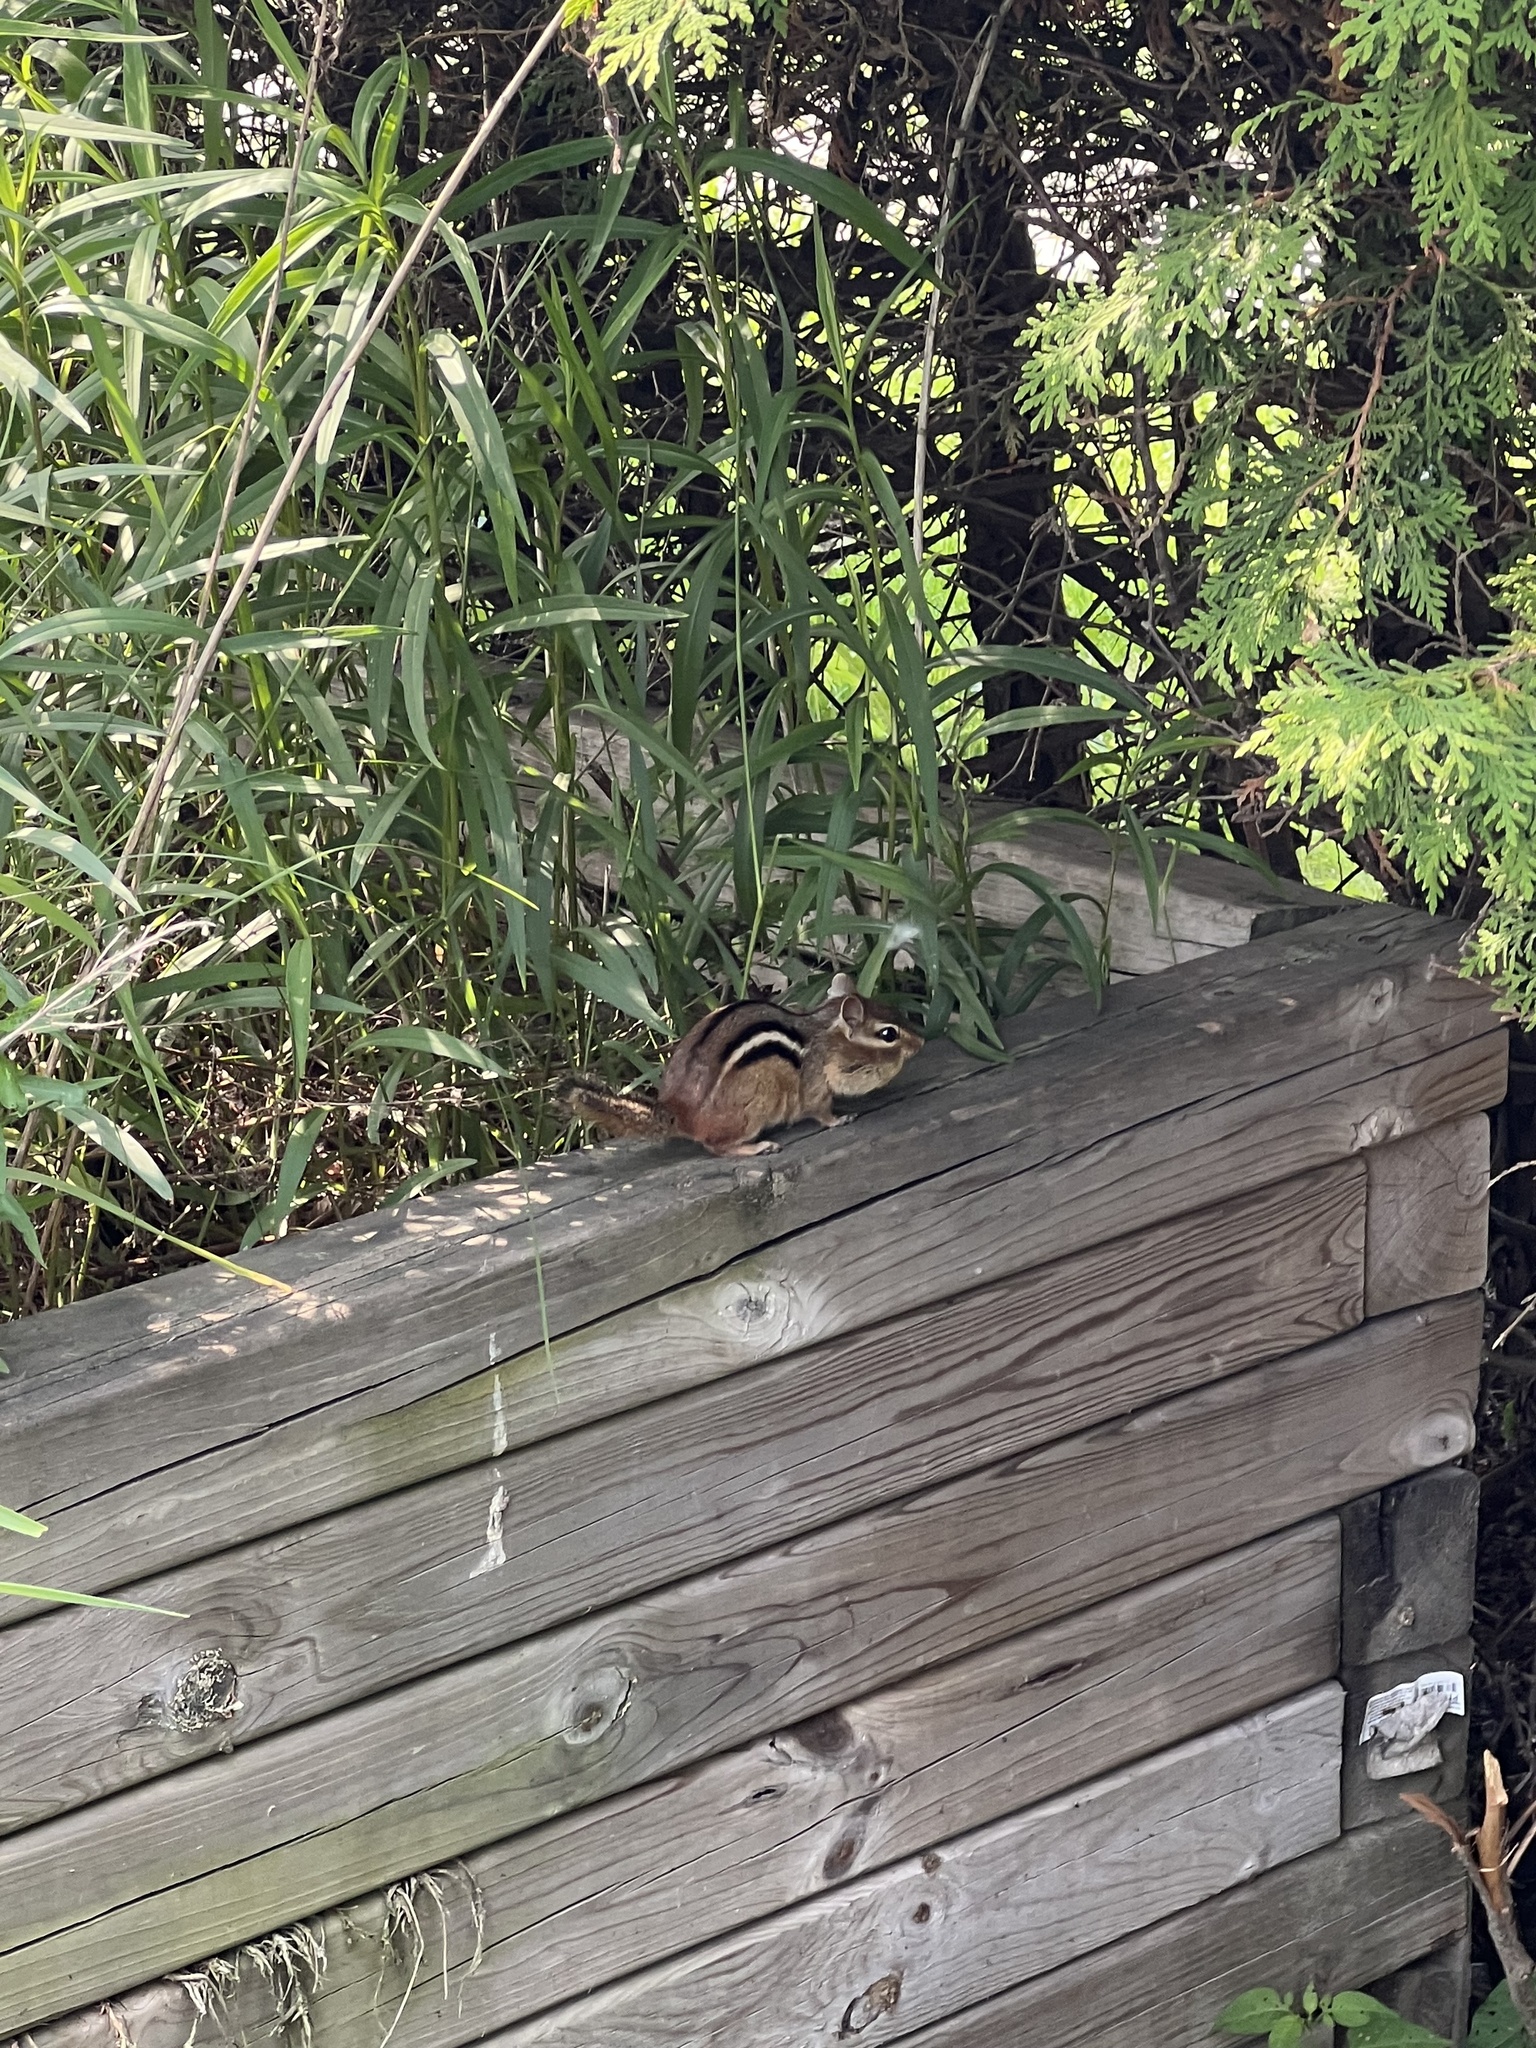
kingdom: Animalia
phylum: Chordata
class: Mammalia
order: Rodentia
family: Sciuridae
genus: Tamias
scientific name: Tamias striatus
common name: Eastern chipmunk
